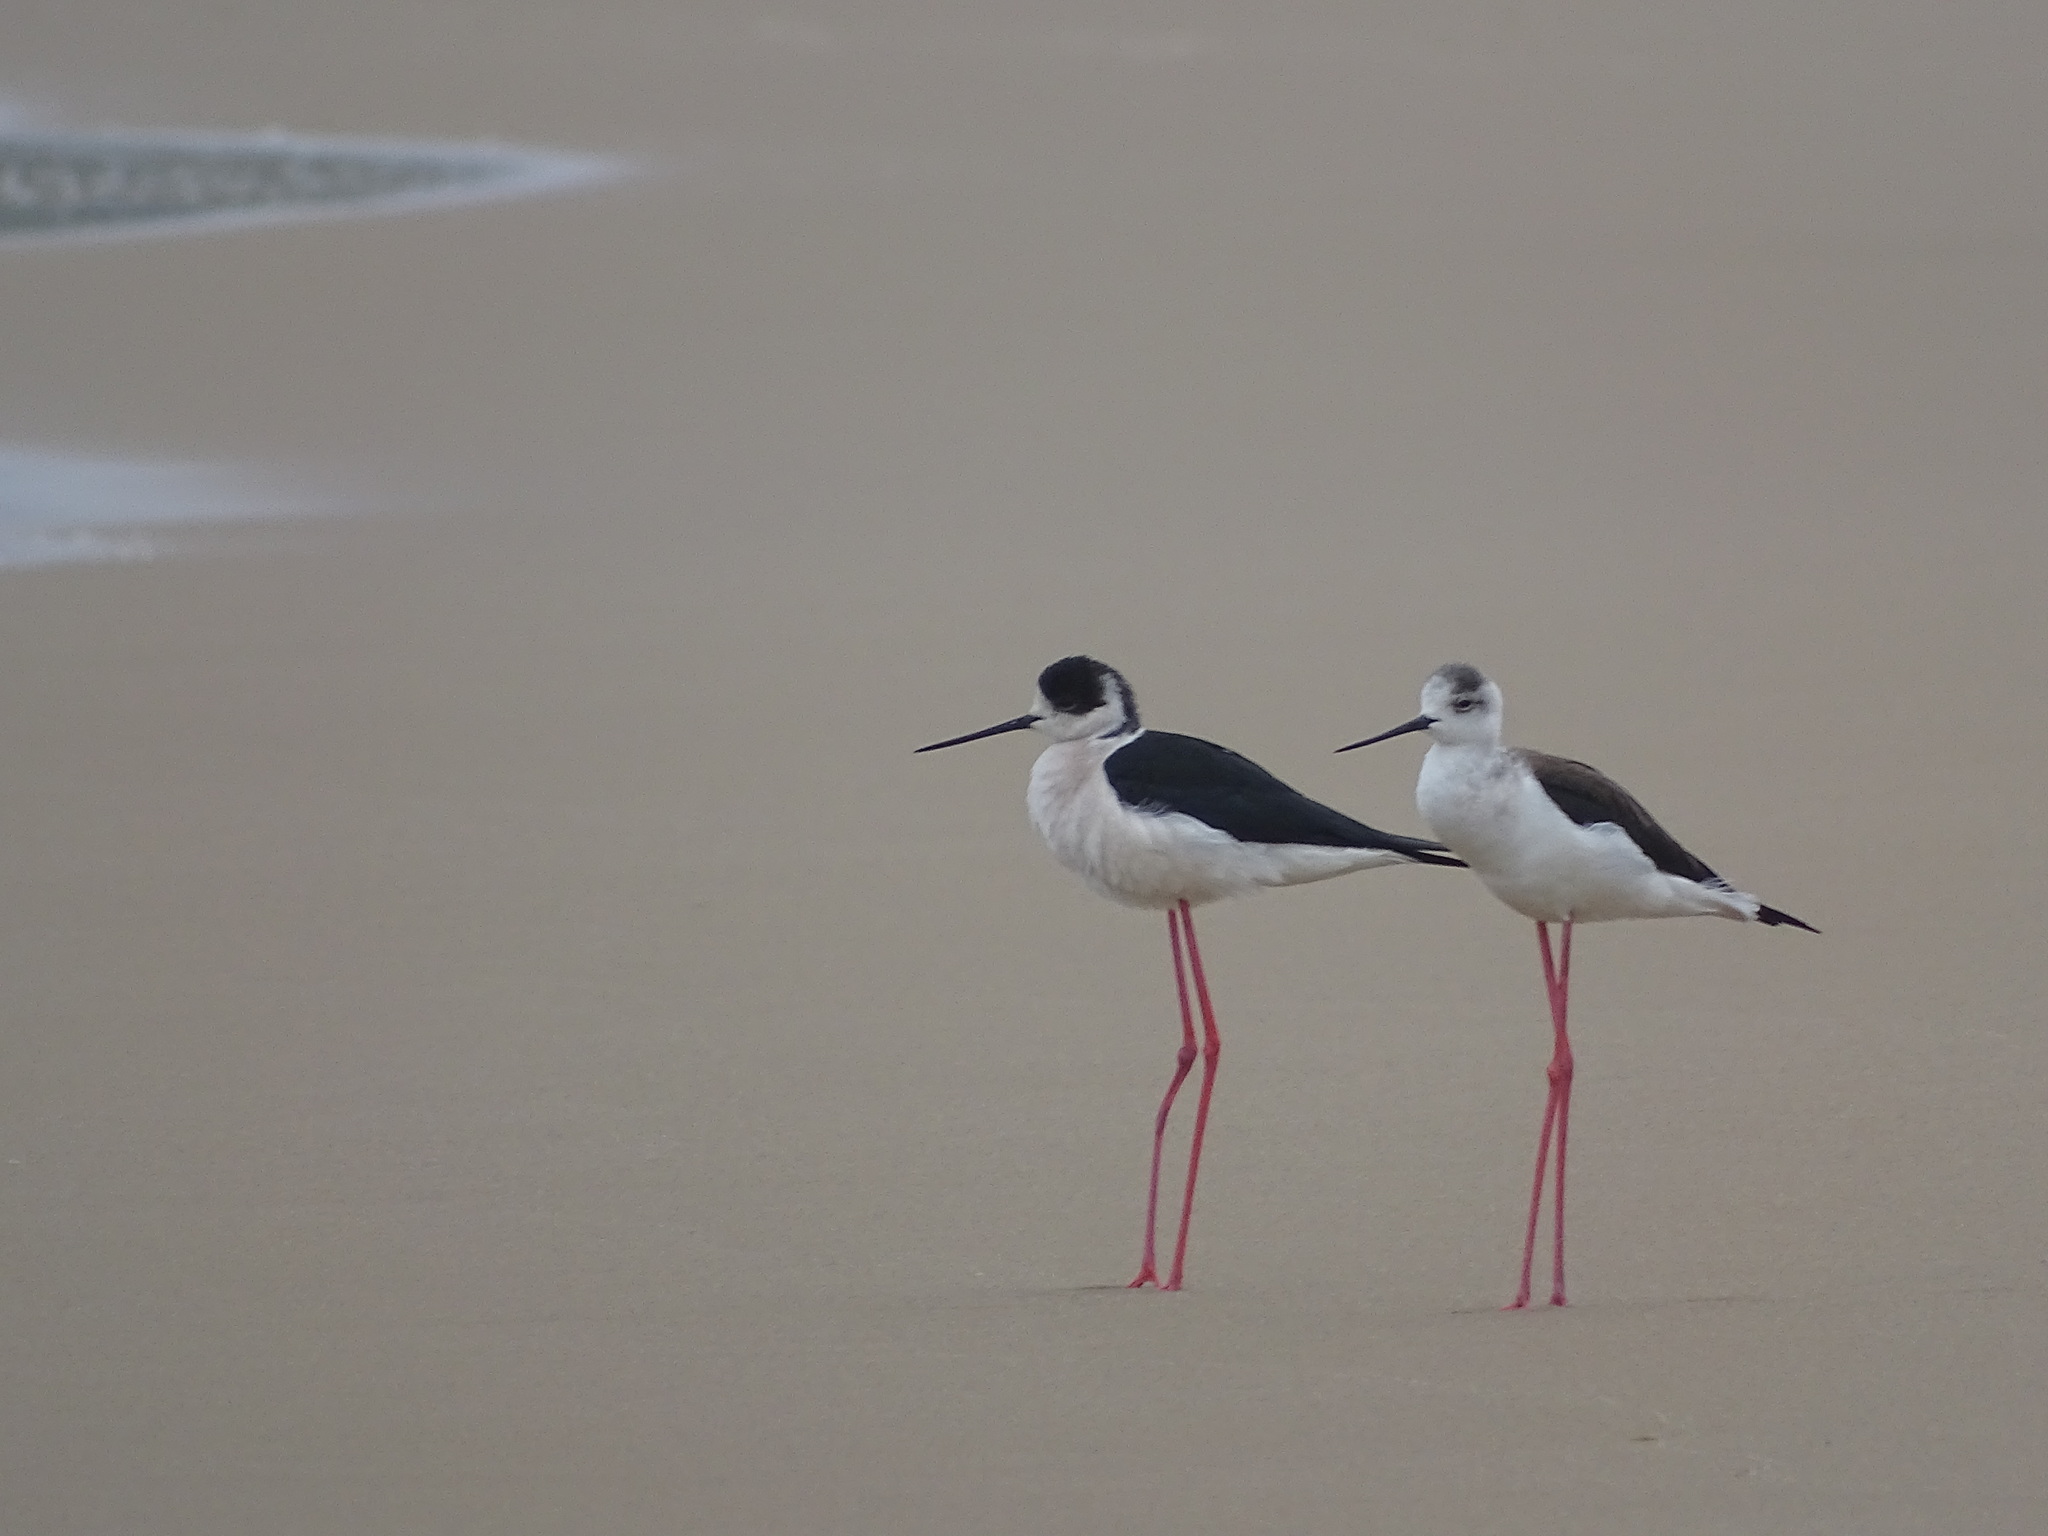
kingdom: Animalia
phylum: Chordata
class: Aves
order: Charadriiformes
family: Recurvirostridae
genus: Himantopus
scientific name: Himantopus himantopus
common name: Black-winged stilt
